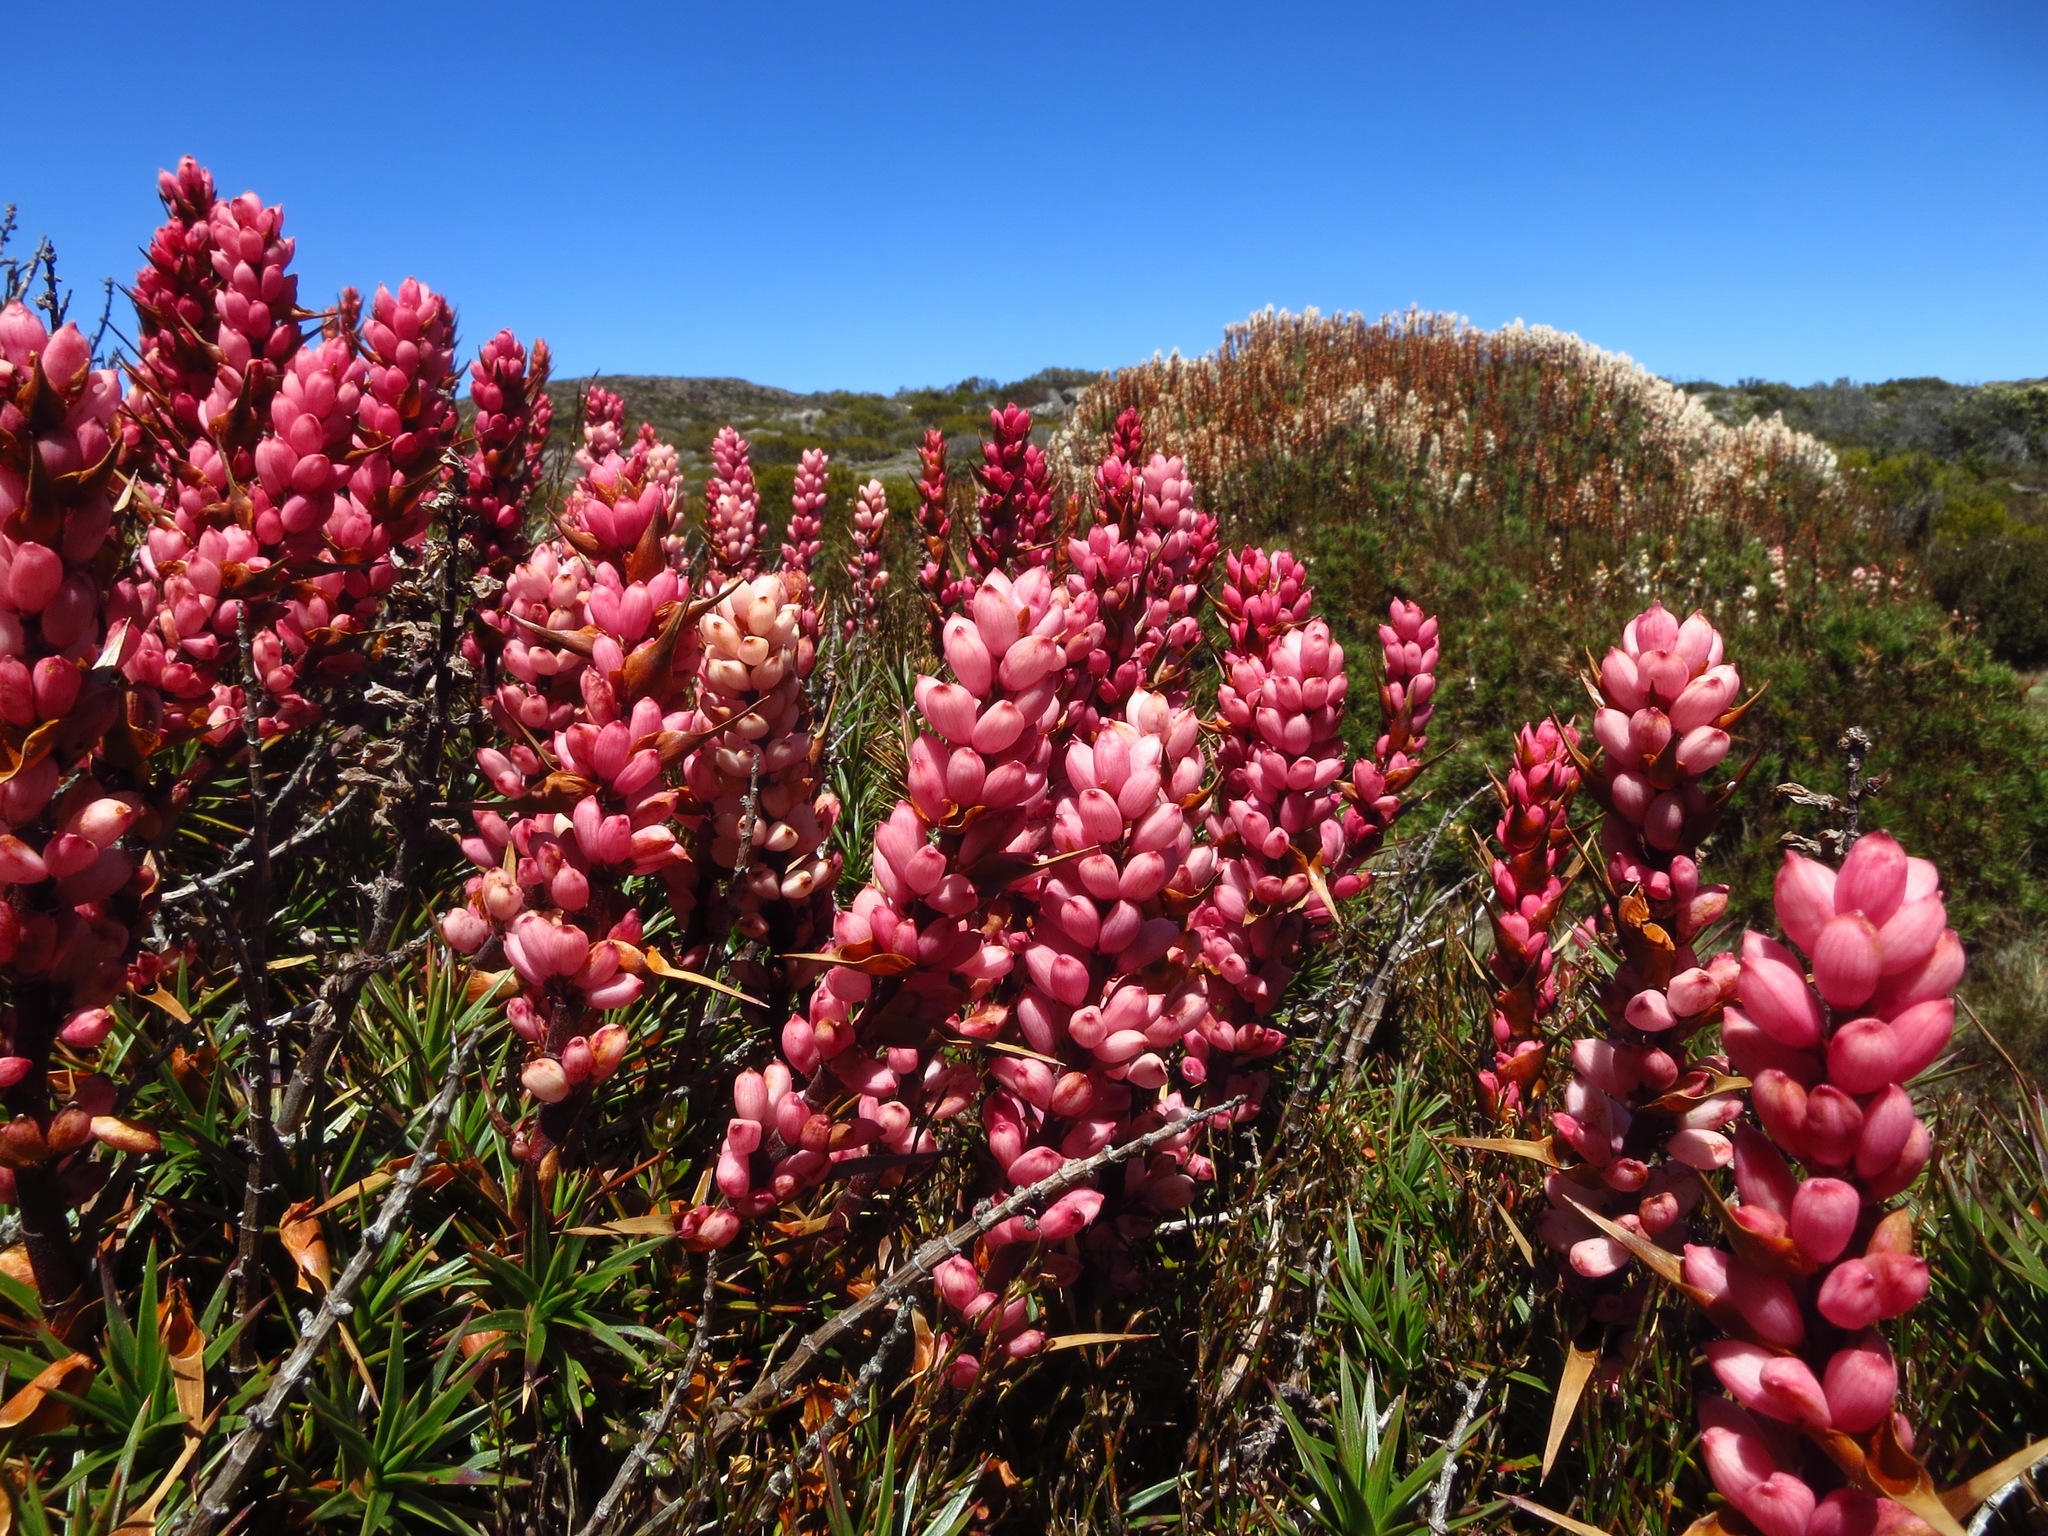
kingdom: Plantae
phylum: Tracheophyta
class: Magnoliopsida
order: Ericales
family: Ericaceae
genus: Dracophyllum
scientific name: Dracophyllum persistentifolium
